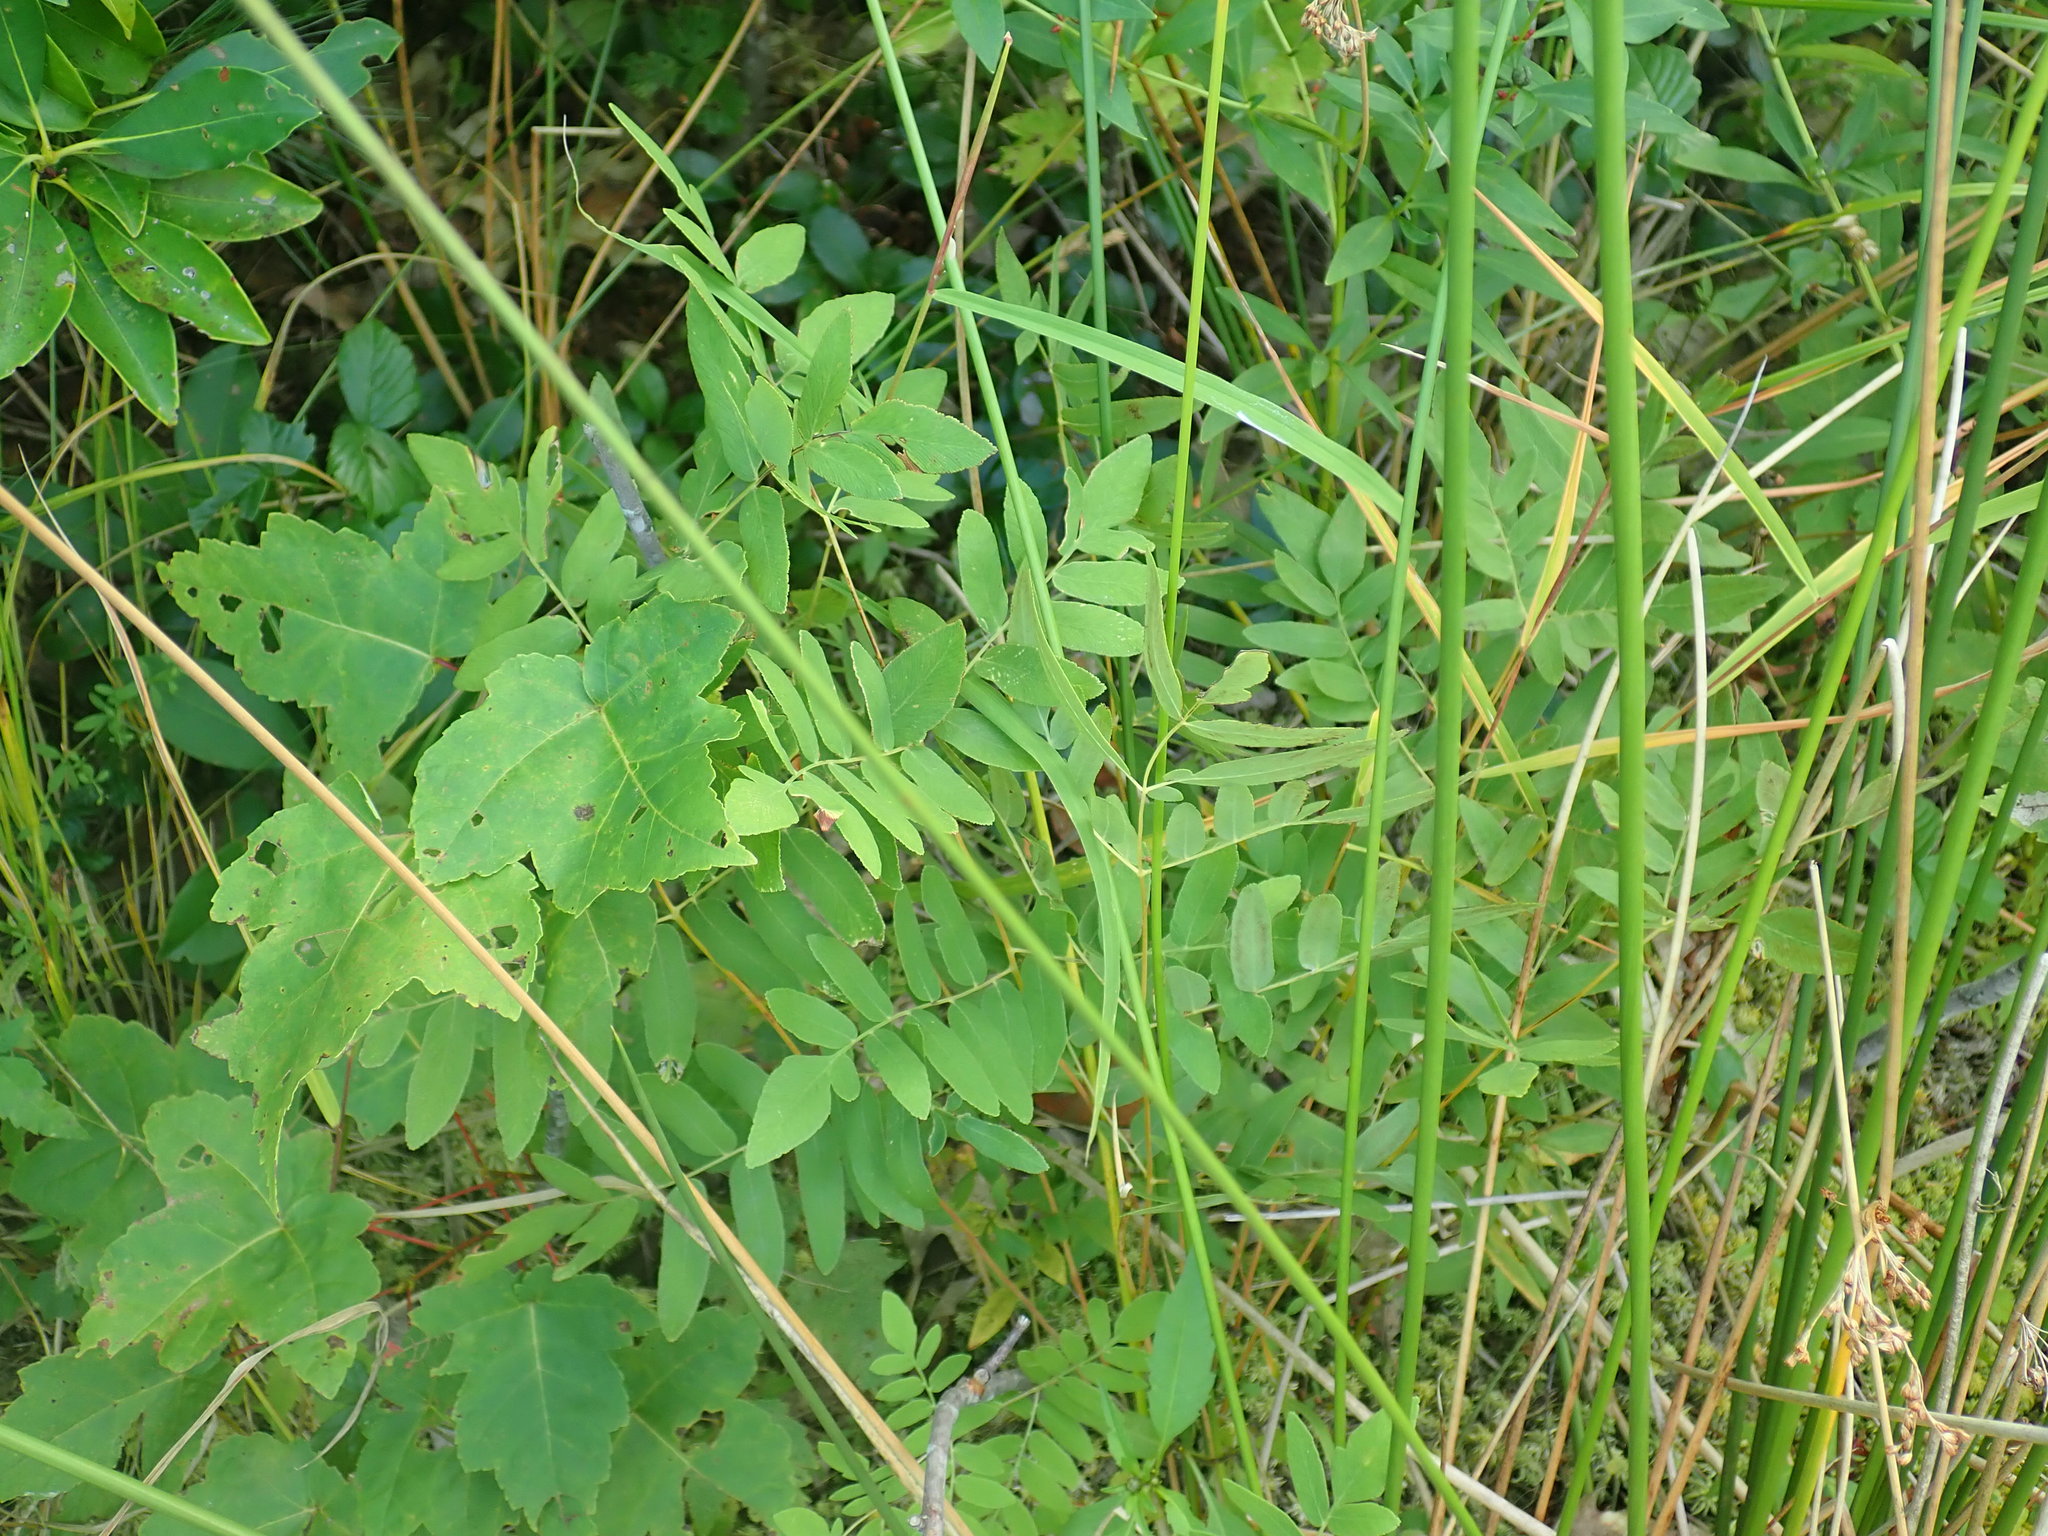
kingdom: Plantae
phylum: Tracheophyta
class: Polypodiopsida
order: Osmundales
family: Osmundaceae
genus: Osmunda
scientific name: Osmunda spectabilis
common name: American royal fern
